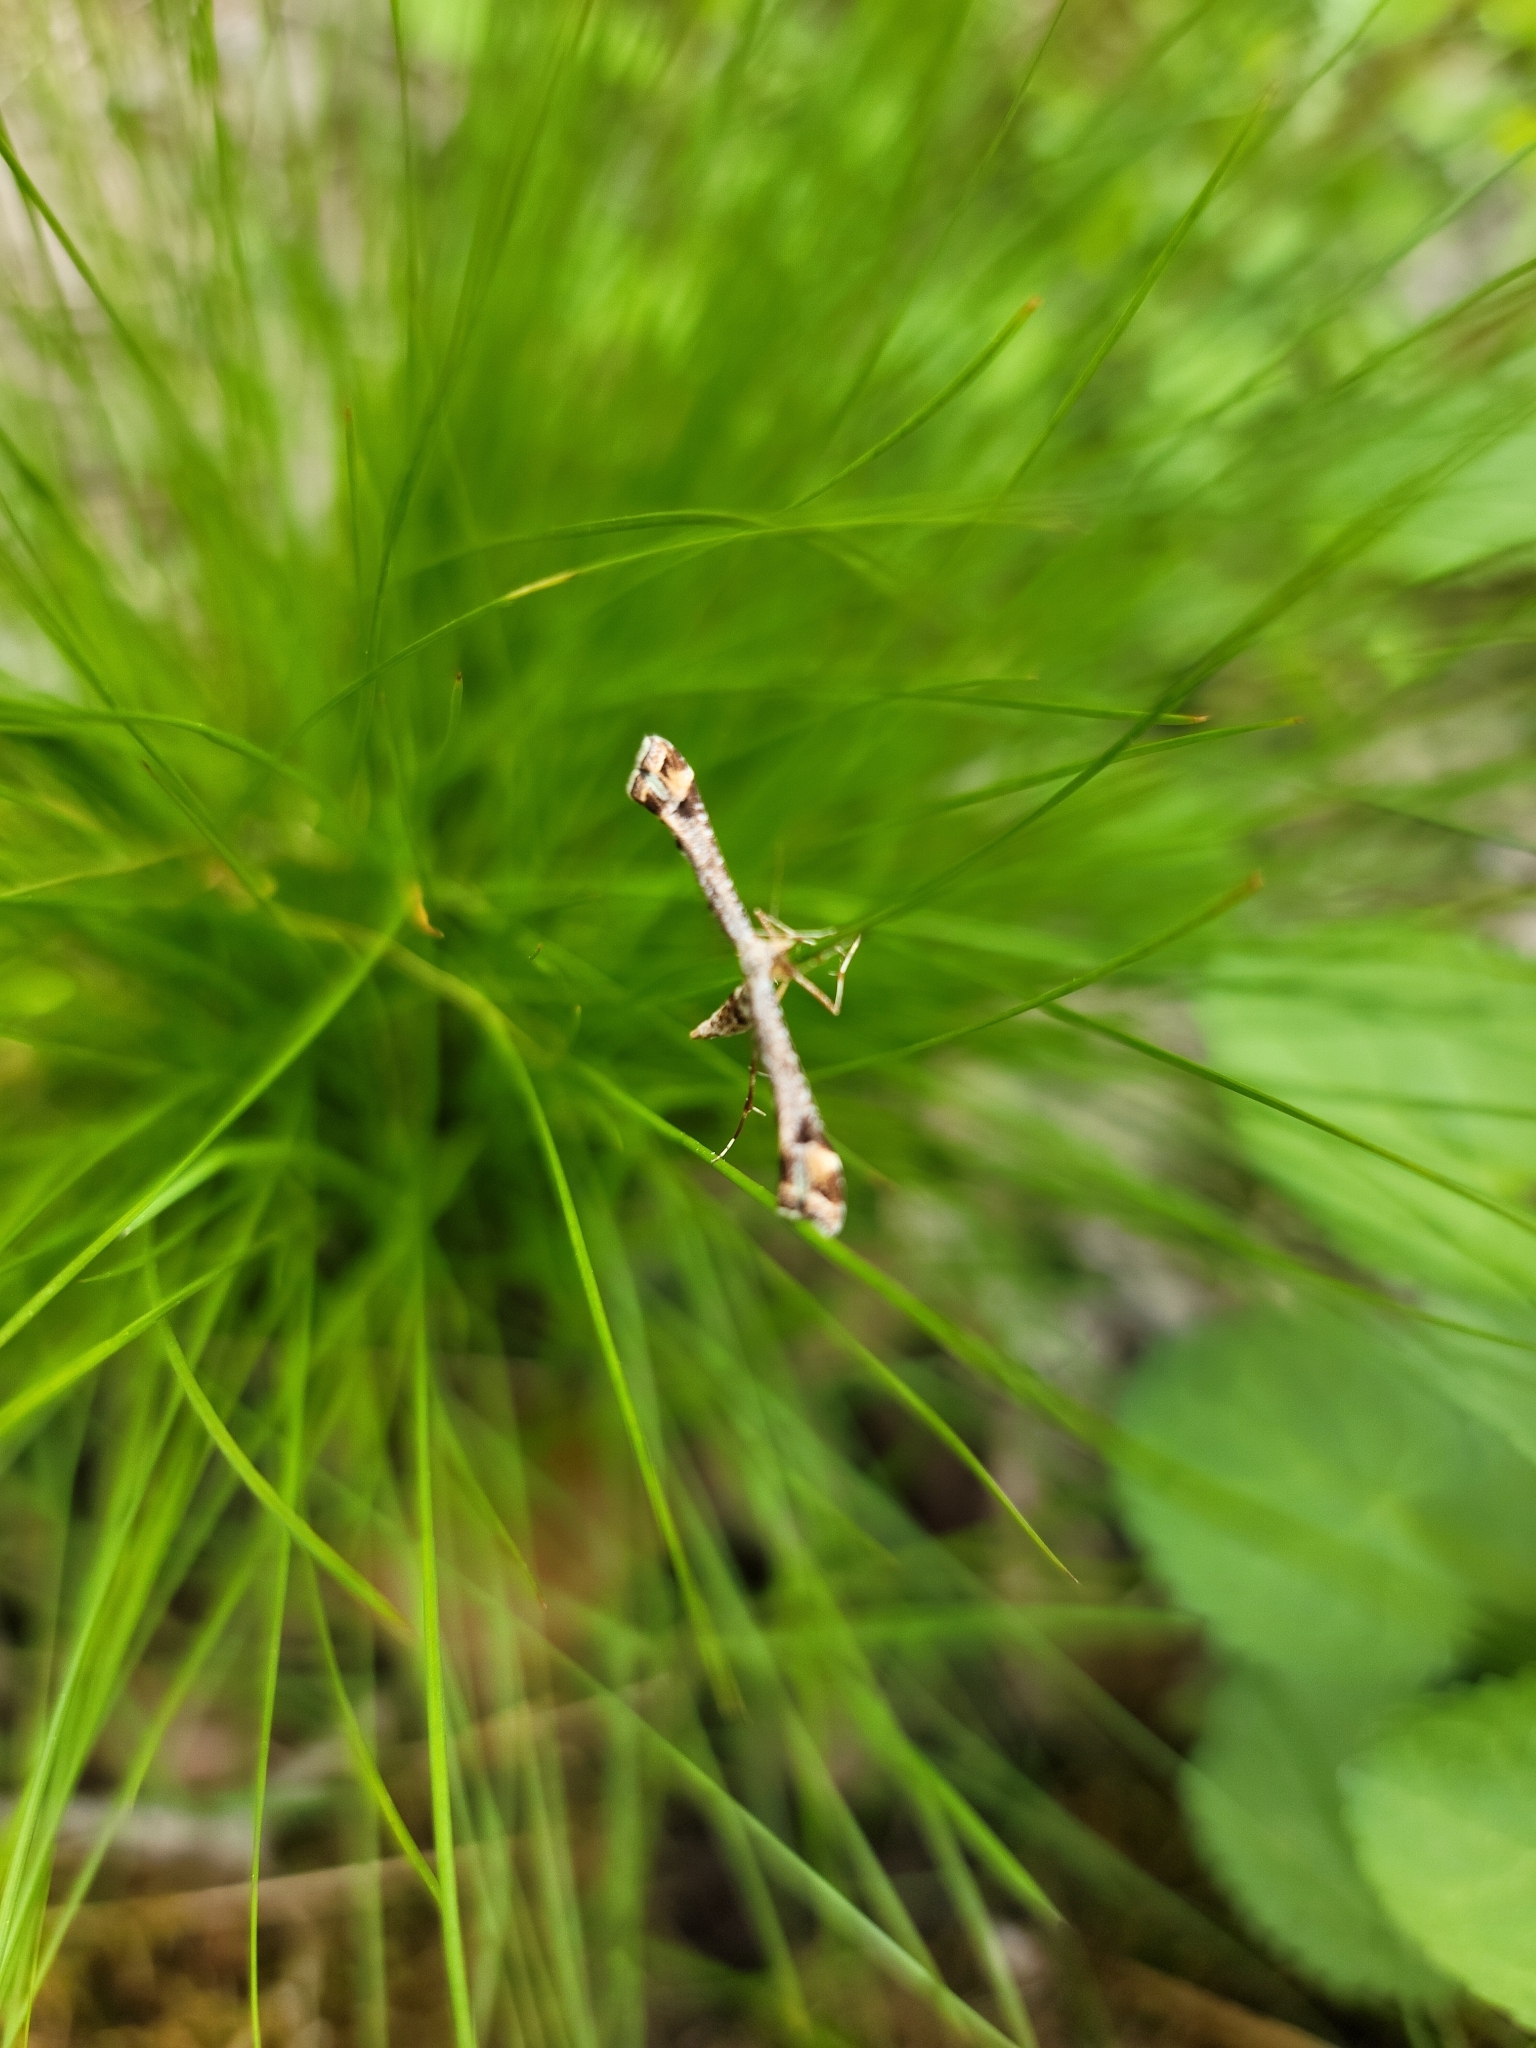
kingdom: Animalia
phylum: Arthropoda
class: Insecta
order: Lepidoptera
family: Pterophoridae
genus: Platyptilia
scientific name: Platyptilia carduidactylus
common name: Artichoke plume moth
